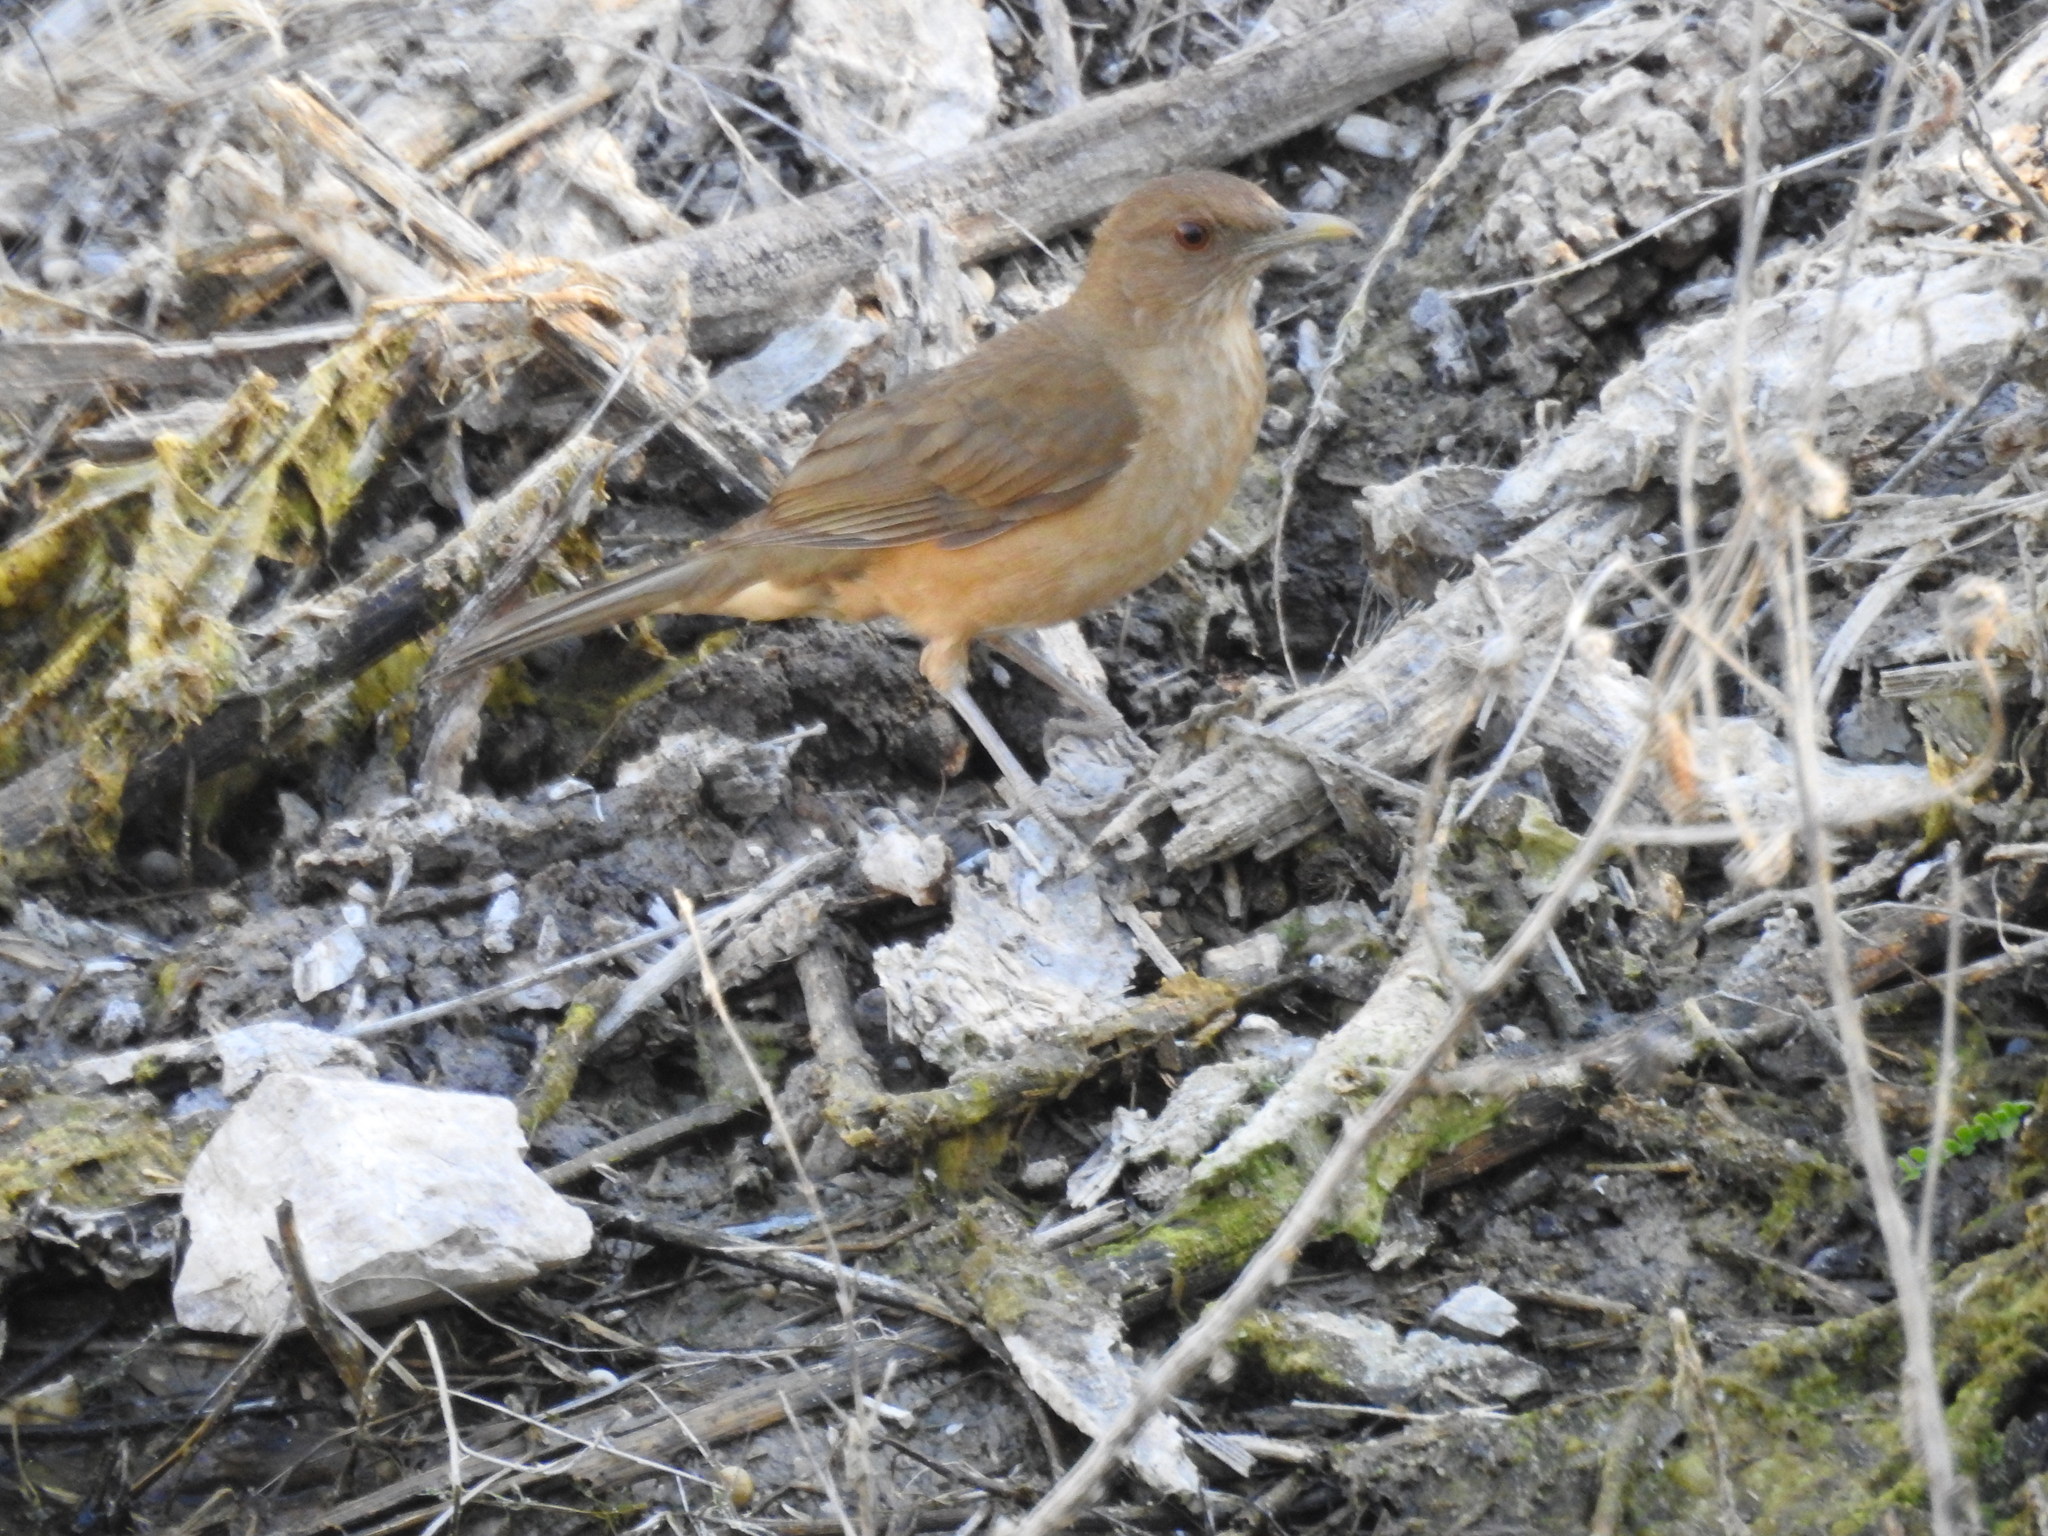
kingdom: Animalia
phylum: Chordata
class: Aves
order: Passeriformes
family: Turdidae
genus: Turdus
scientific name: Turdus grayi
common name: Clay-colored thrush
